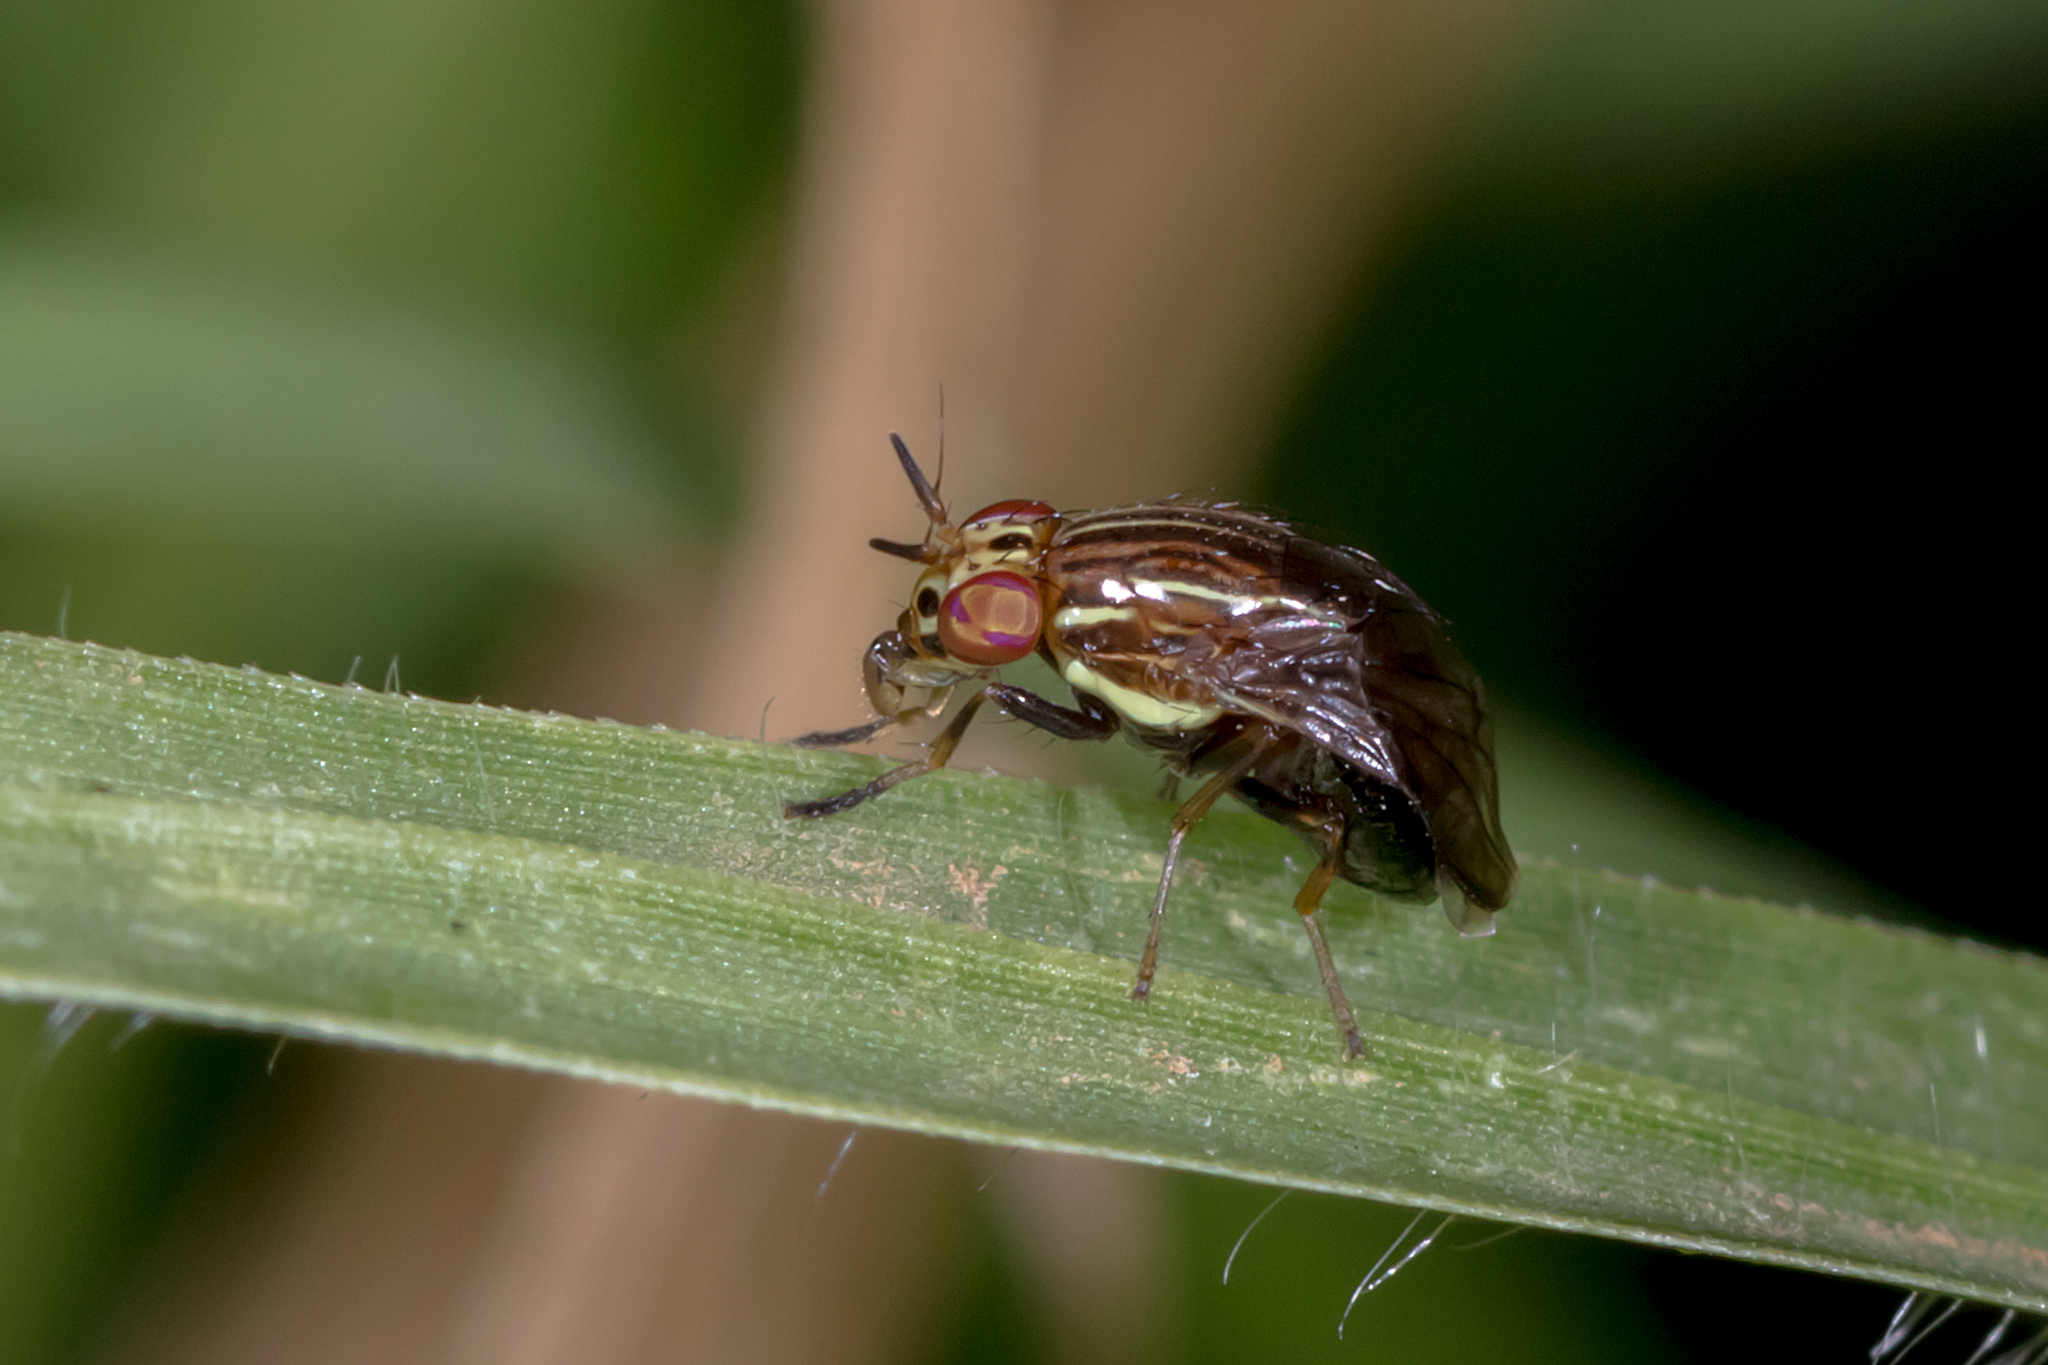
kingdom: Animalia
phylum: Arthropoda
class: Insecta
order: Diptera
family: Lauxaniidae
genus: Steganopsis
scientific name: Steganopsis melanogaster
